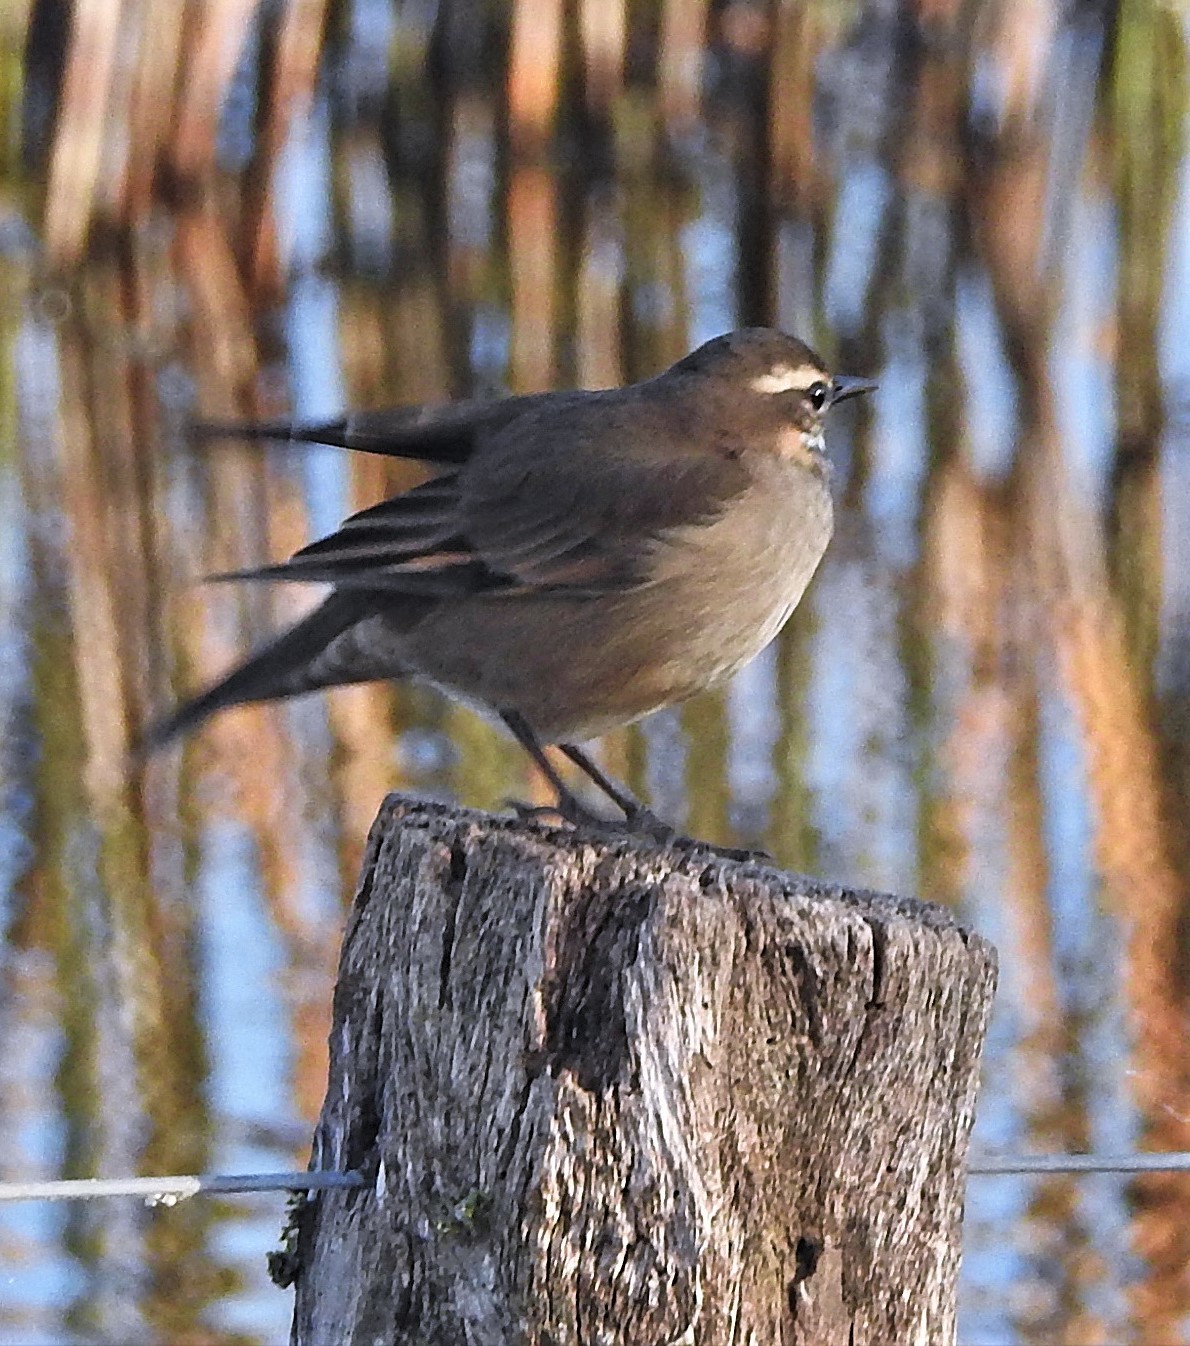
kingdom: Animalia
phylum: Chordata
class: Aves
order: Passeriformes
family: Furnariidae
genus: Cinclodes
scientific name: Cinclodes fuscus
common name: Buff-winged cinclodes
